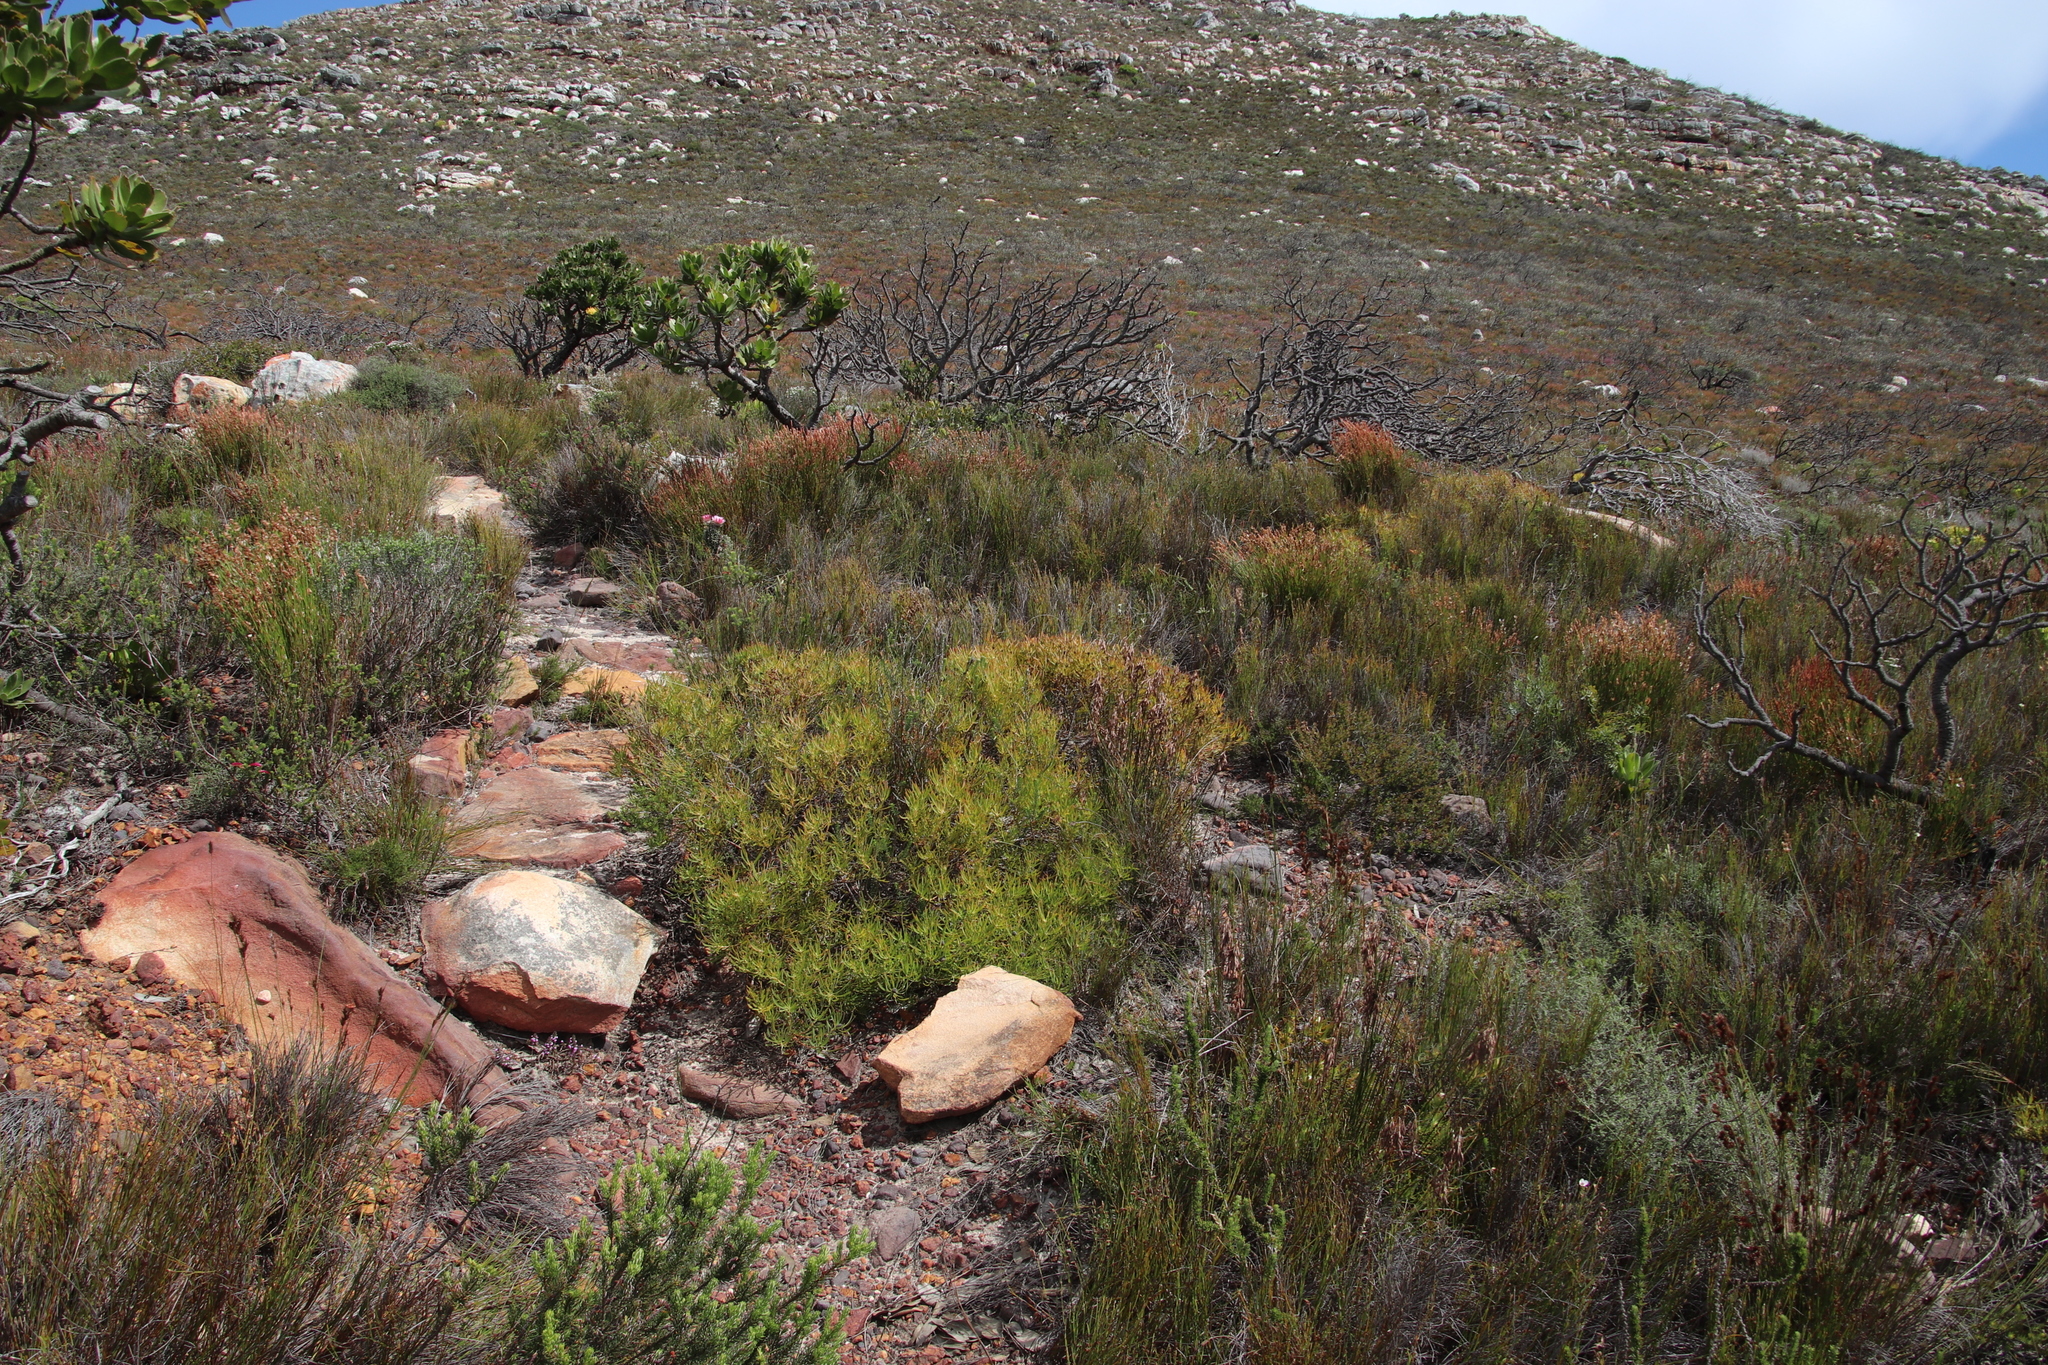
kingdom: Plantae
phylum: Tracheophyta
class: Magnoliopsida
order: Proteales
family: Proteaceae
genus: Leucadendron
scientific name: Leucadendron salignum
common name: Common sunshine conebush
